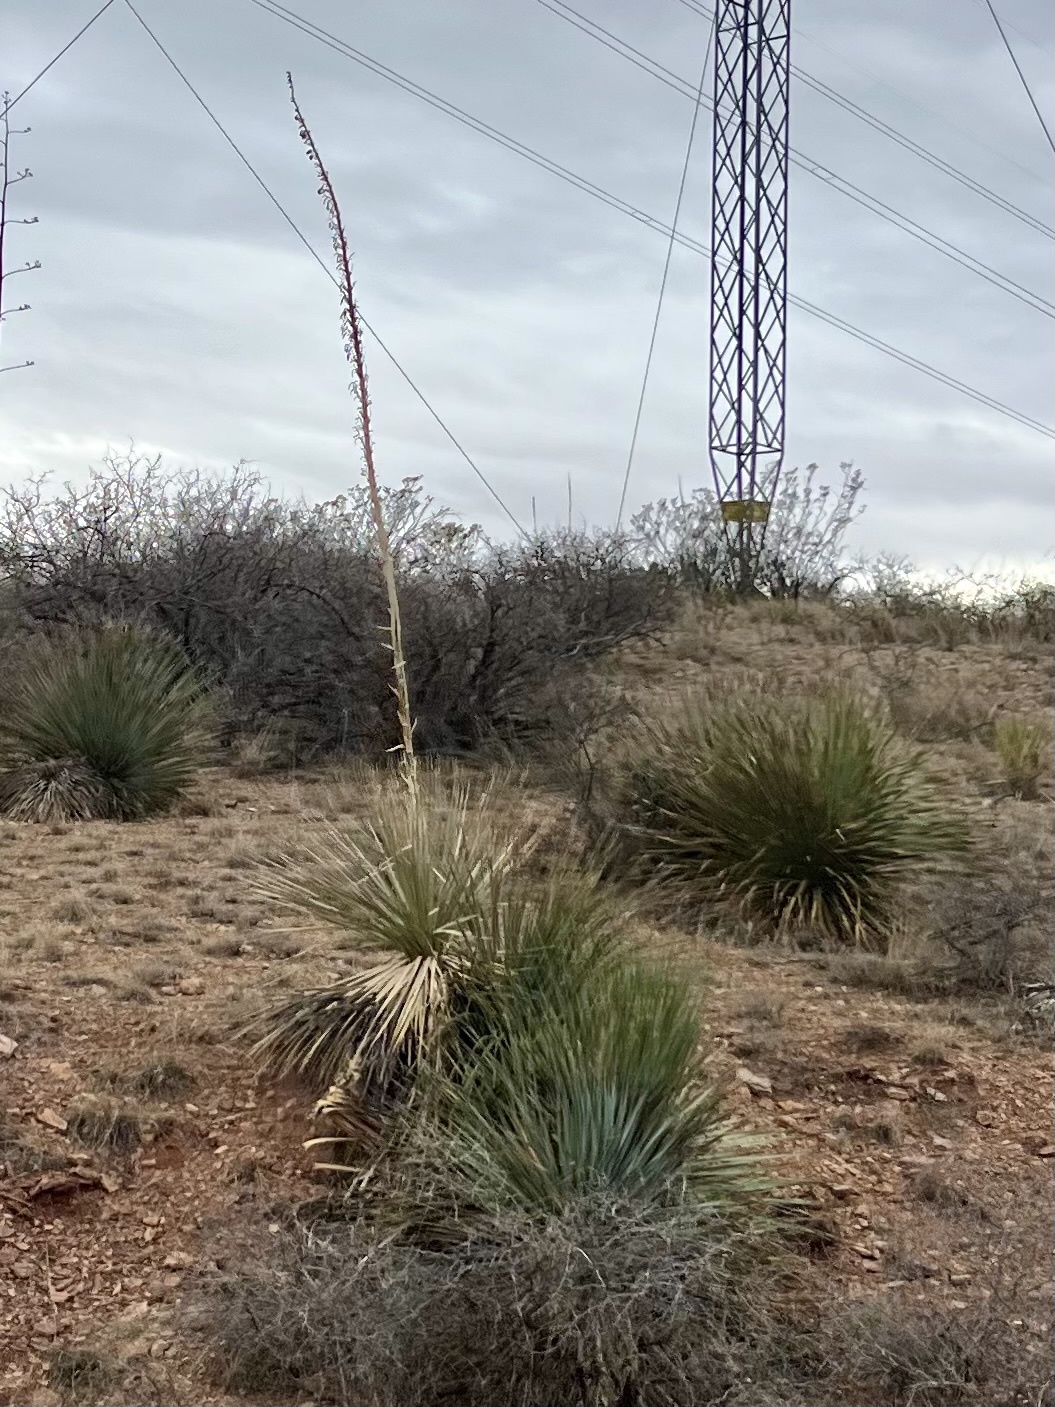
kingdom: Plantae
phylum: Tracheophyta
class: Liliopsida
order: Asparagales
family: Asparagaceae
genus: Dasylirion
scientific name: Dasylirion wheeleri
